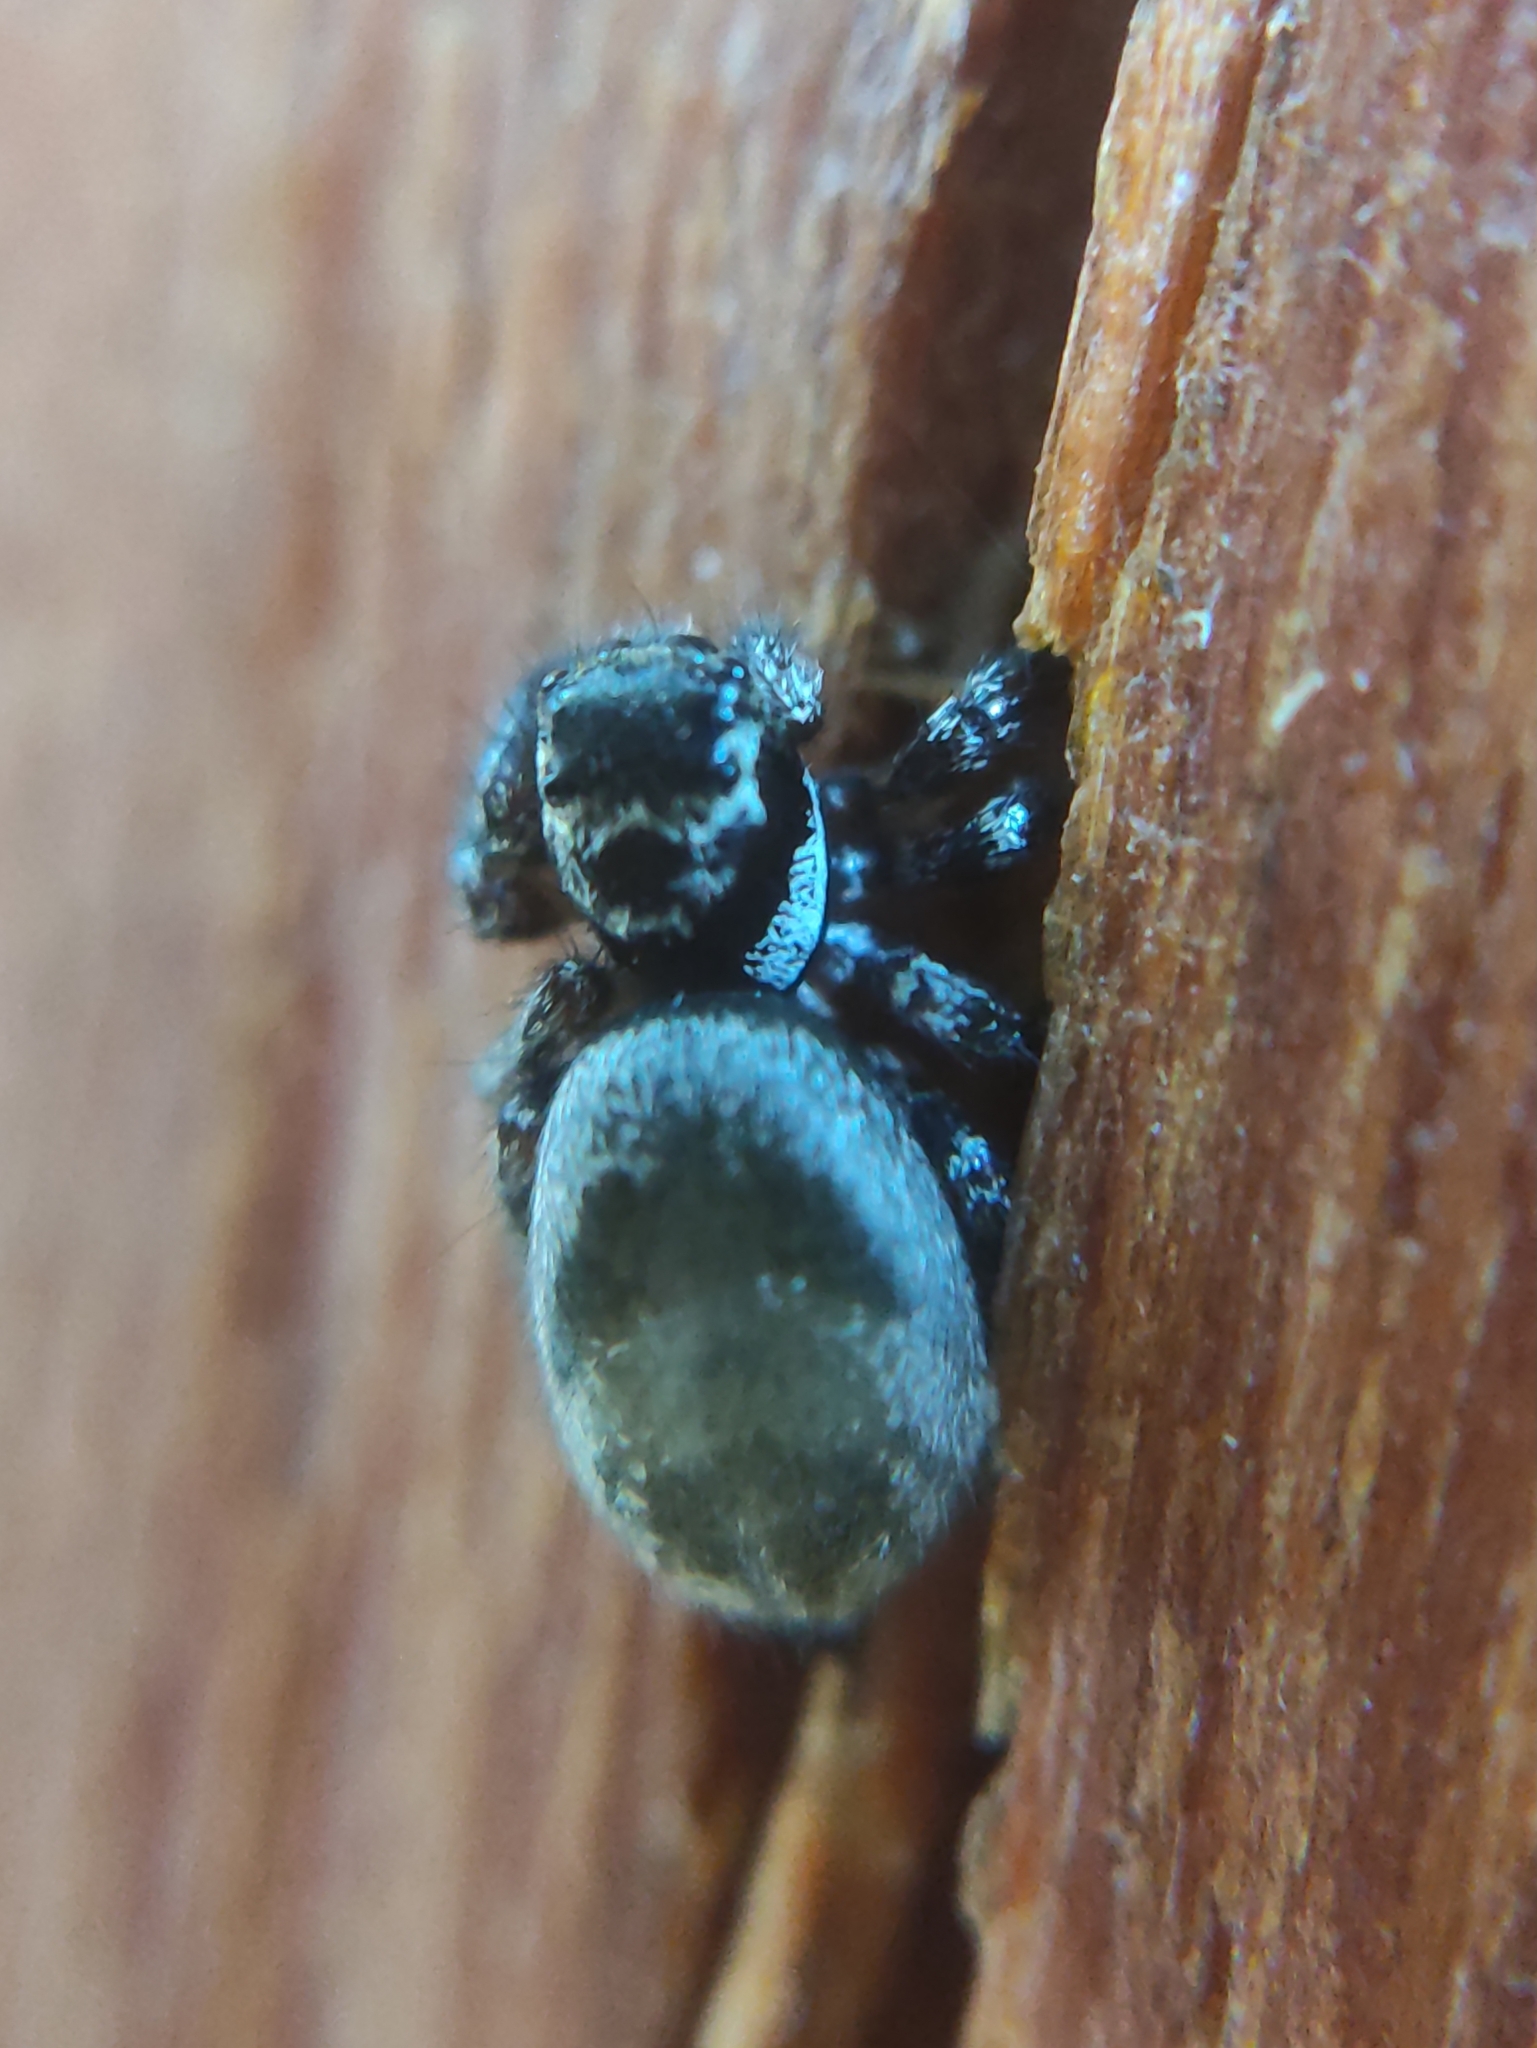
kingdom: Animalia
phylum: Arthropoda
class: Arachnida
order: Araneae
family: Salticidae
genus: Corythalia
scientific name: Corythalia conferta
